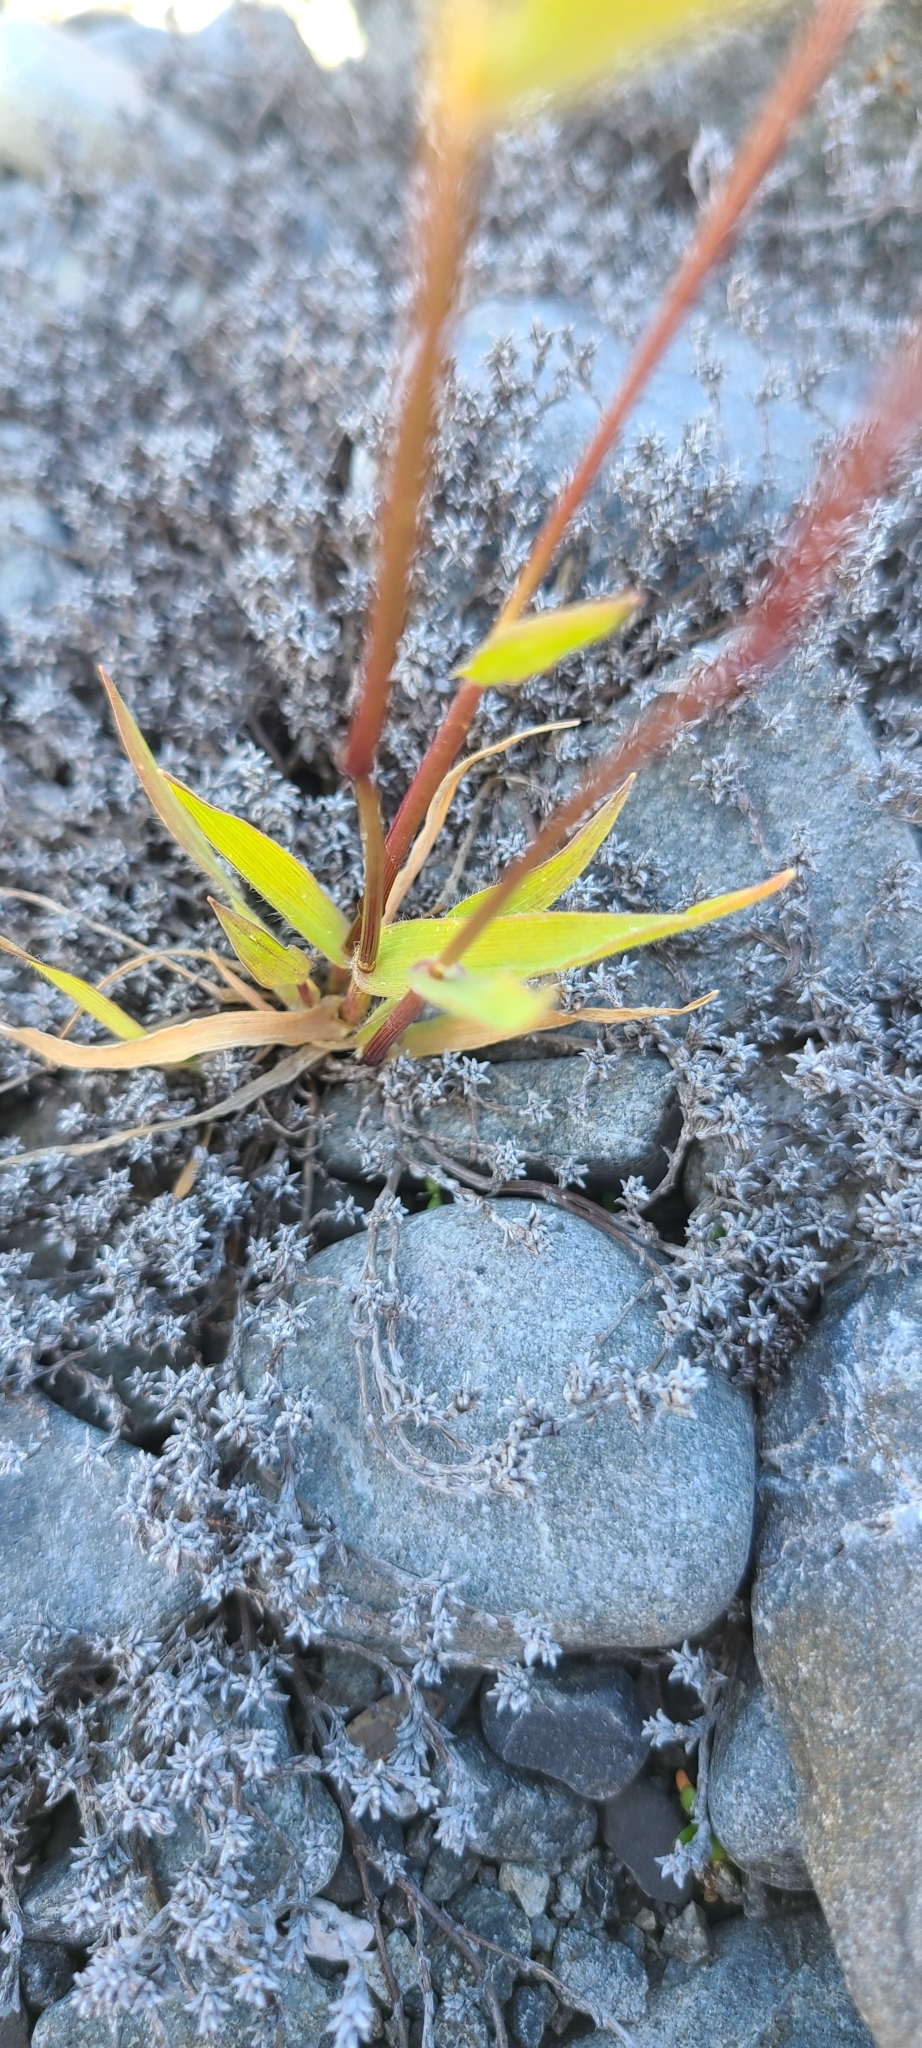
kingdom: Plantae
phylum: Tracheophyta
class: Liliopsida
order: Poales
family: Poaceae
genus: Anthoxanthum
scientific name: Anthoxanthum odoratum
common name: Sweet vernalgrass
